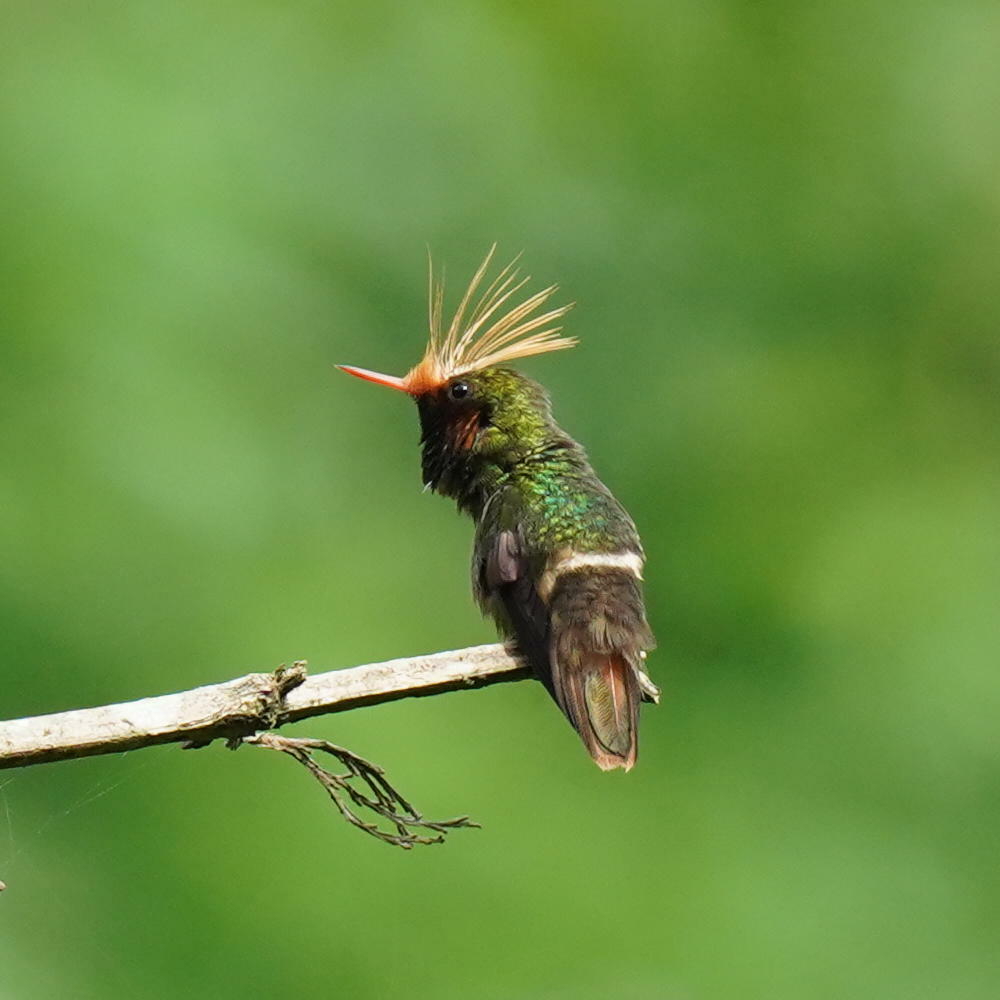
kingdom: Animalia
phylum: Chordata
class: Aves
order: Apodiformes
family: Trochilidae
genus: Lophornis
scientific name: Lophornis delattrei
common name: Rufous-crested coquette
